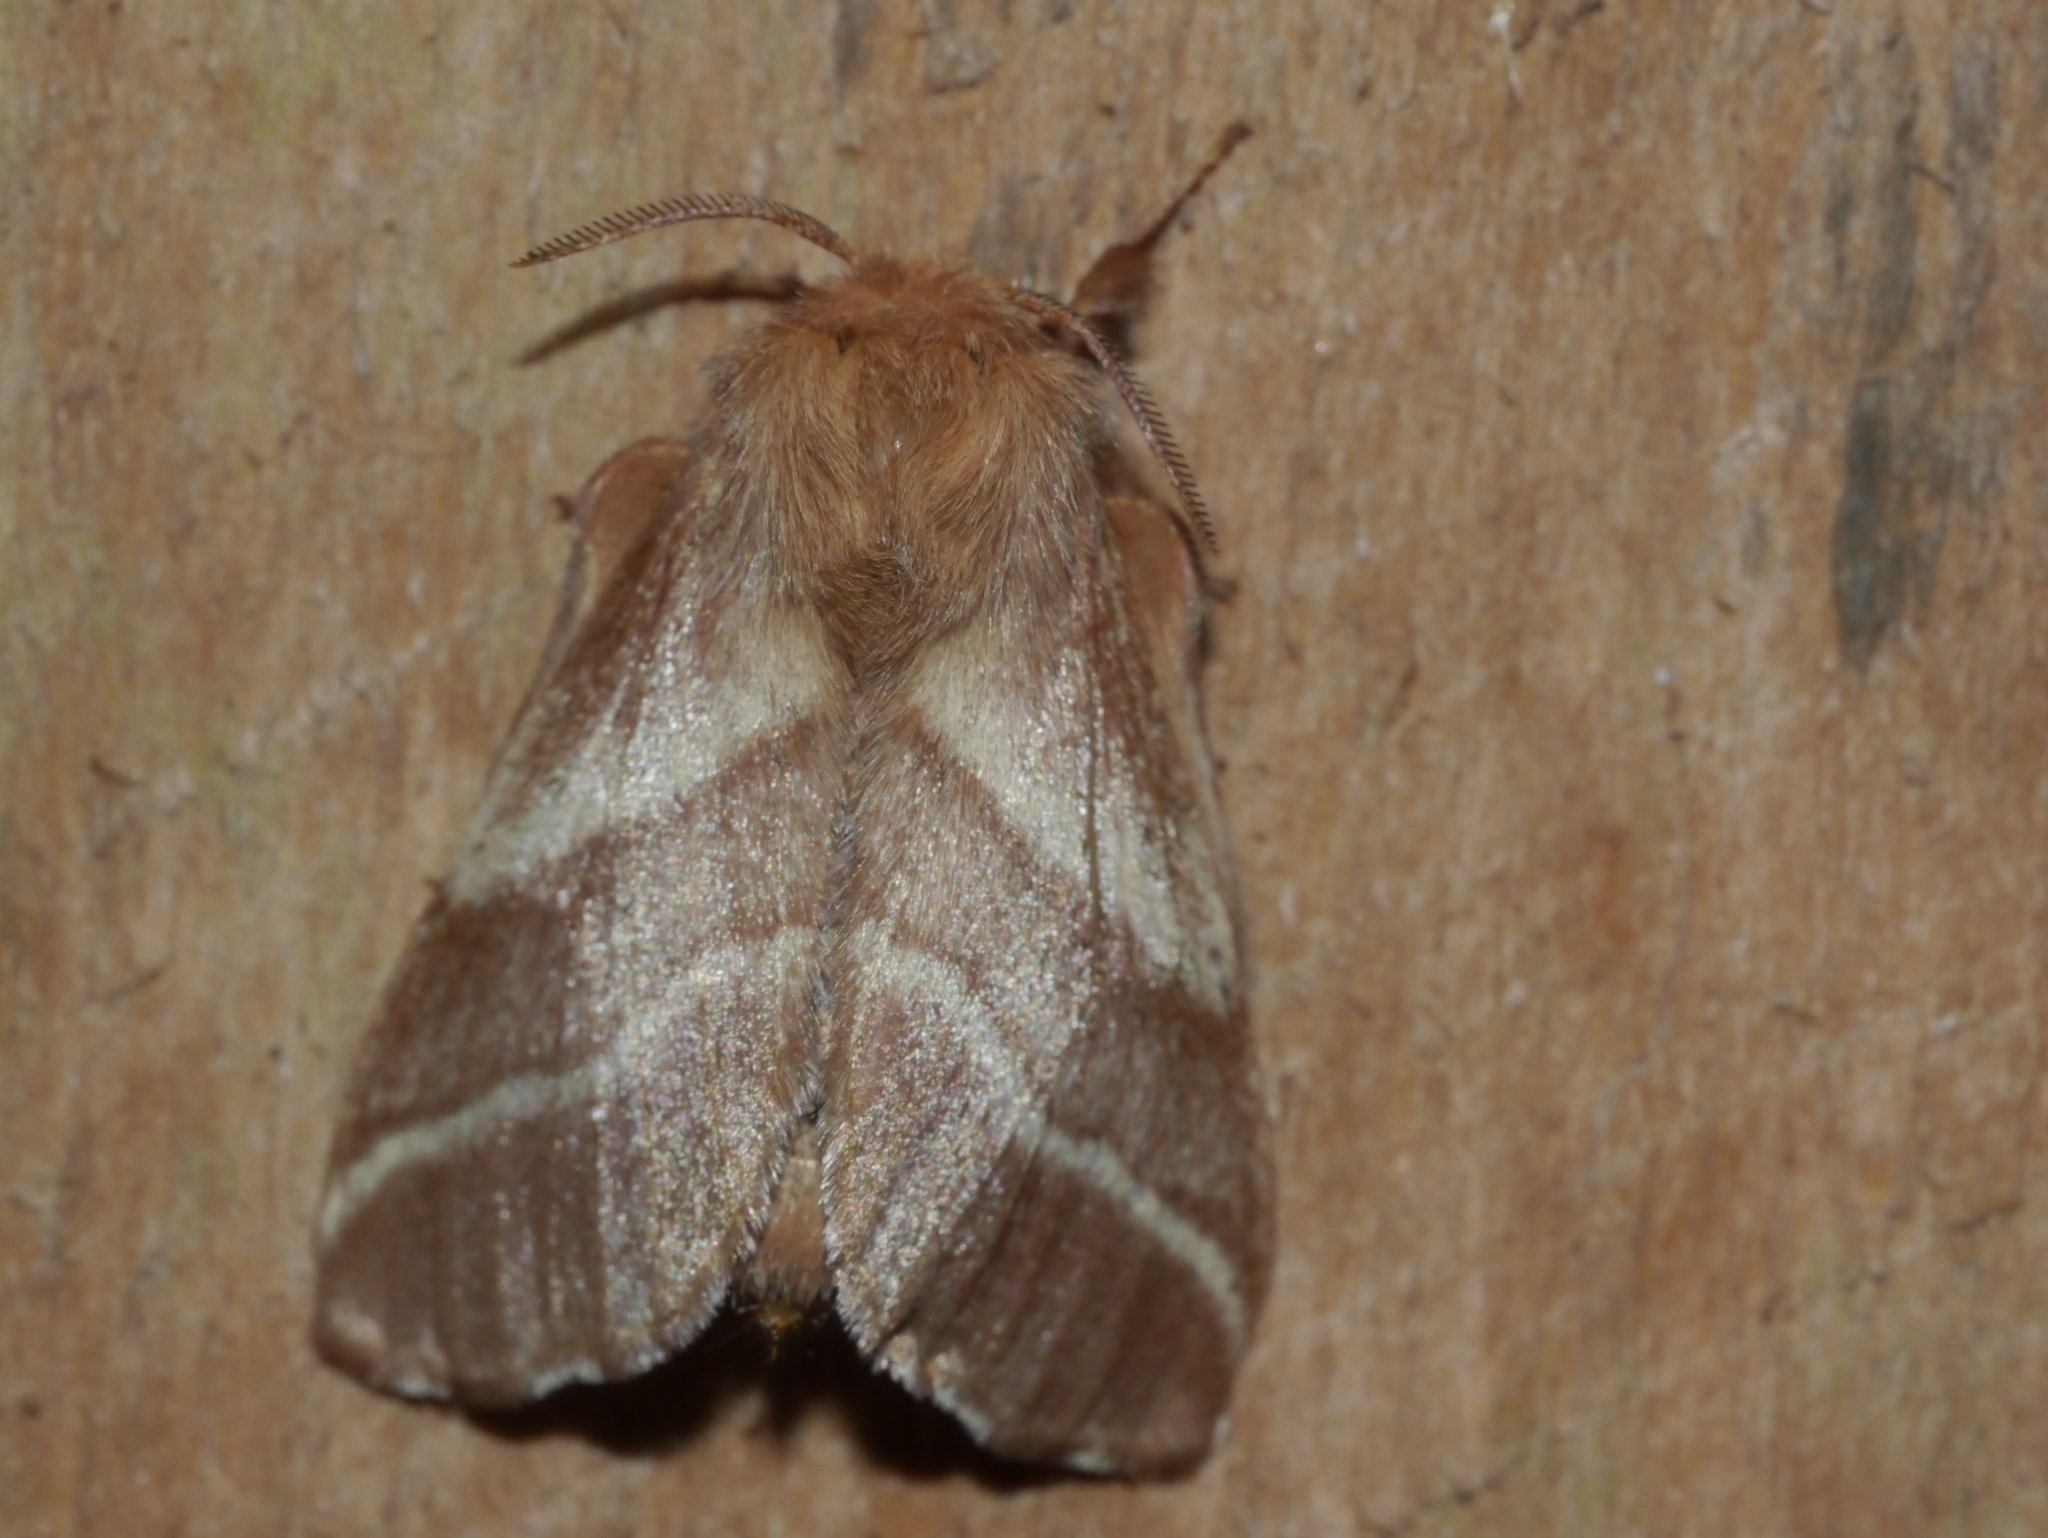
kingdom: Animalia
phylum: Arthropoda
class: Insecta
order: Lepidoptera
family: Lasiocampidae
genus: Malacosoma
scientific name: Malacosoma americana
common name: Eastern tent caterpillar moth
